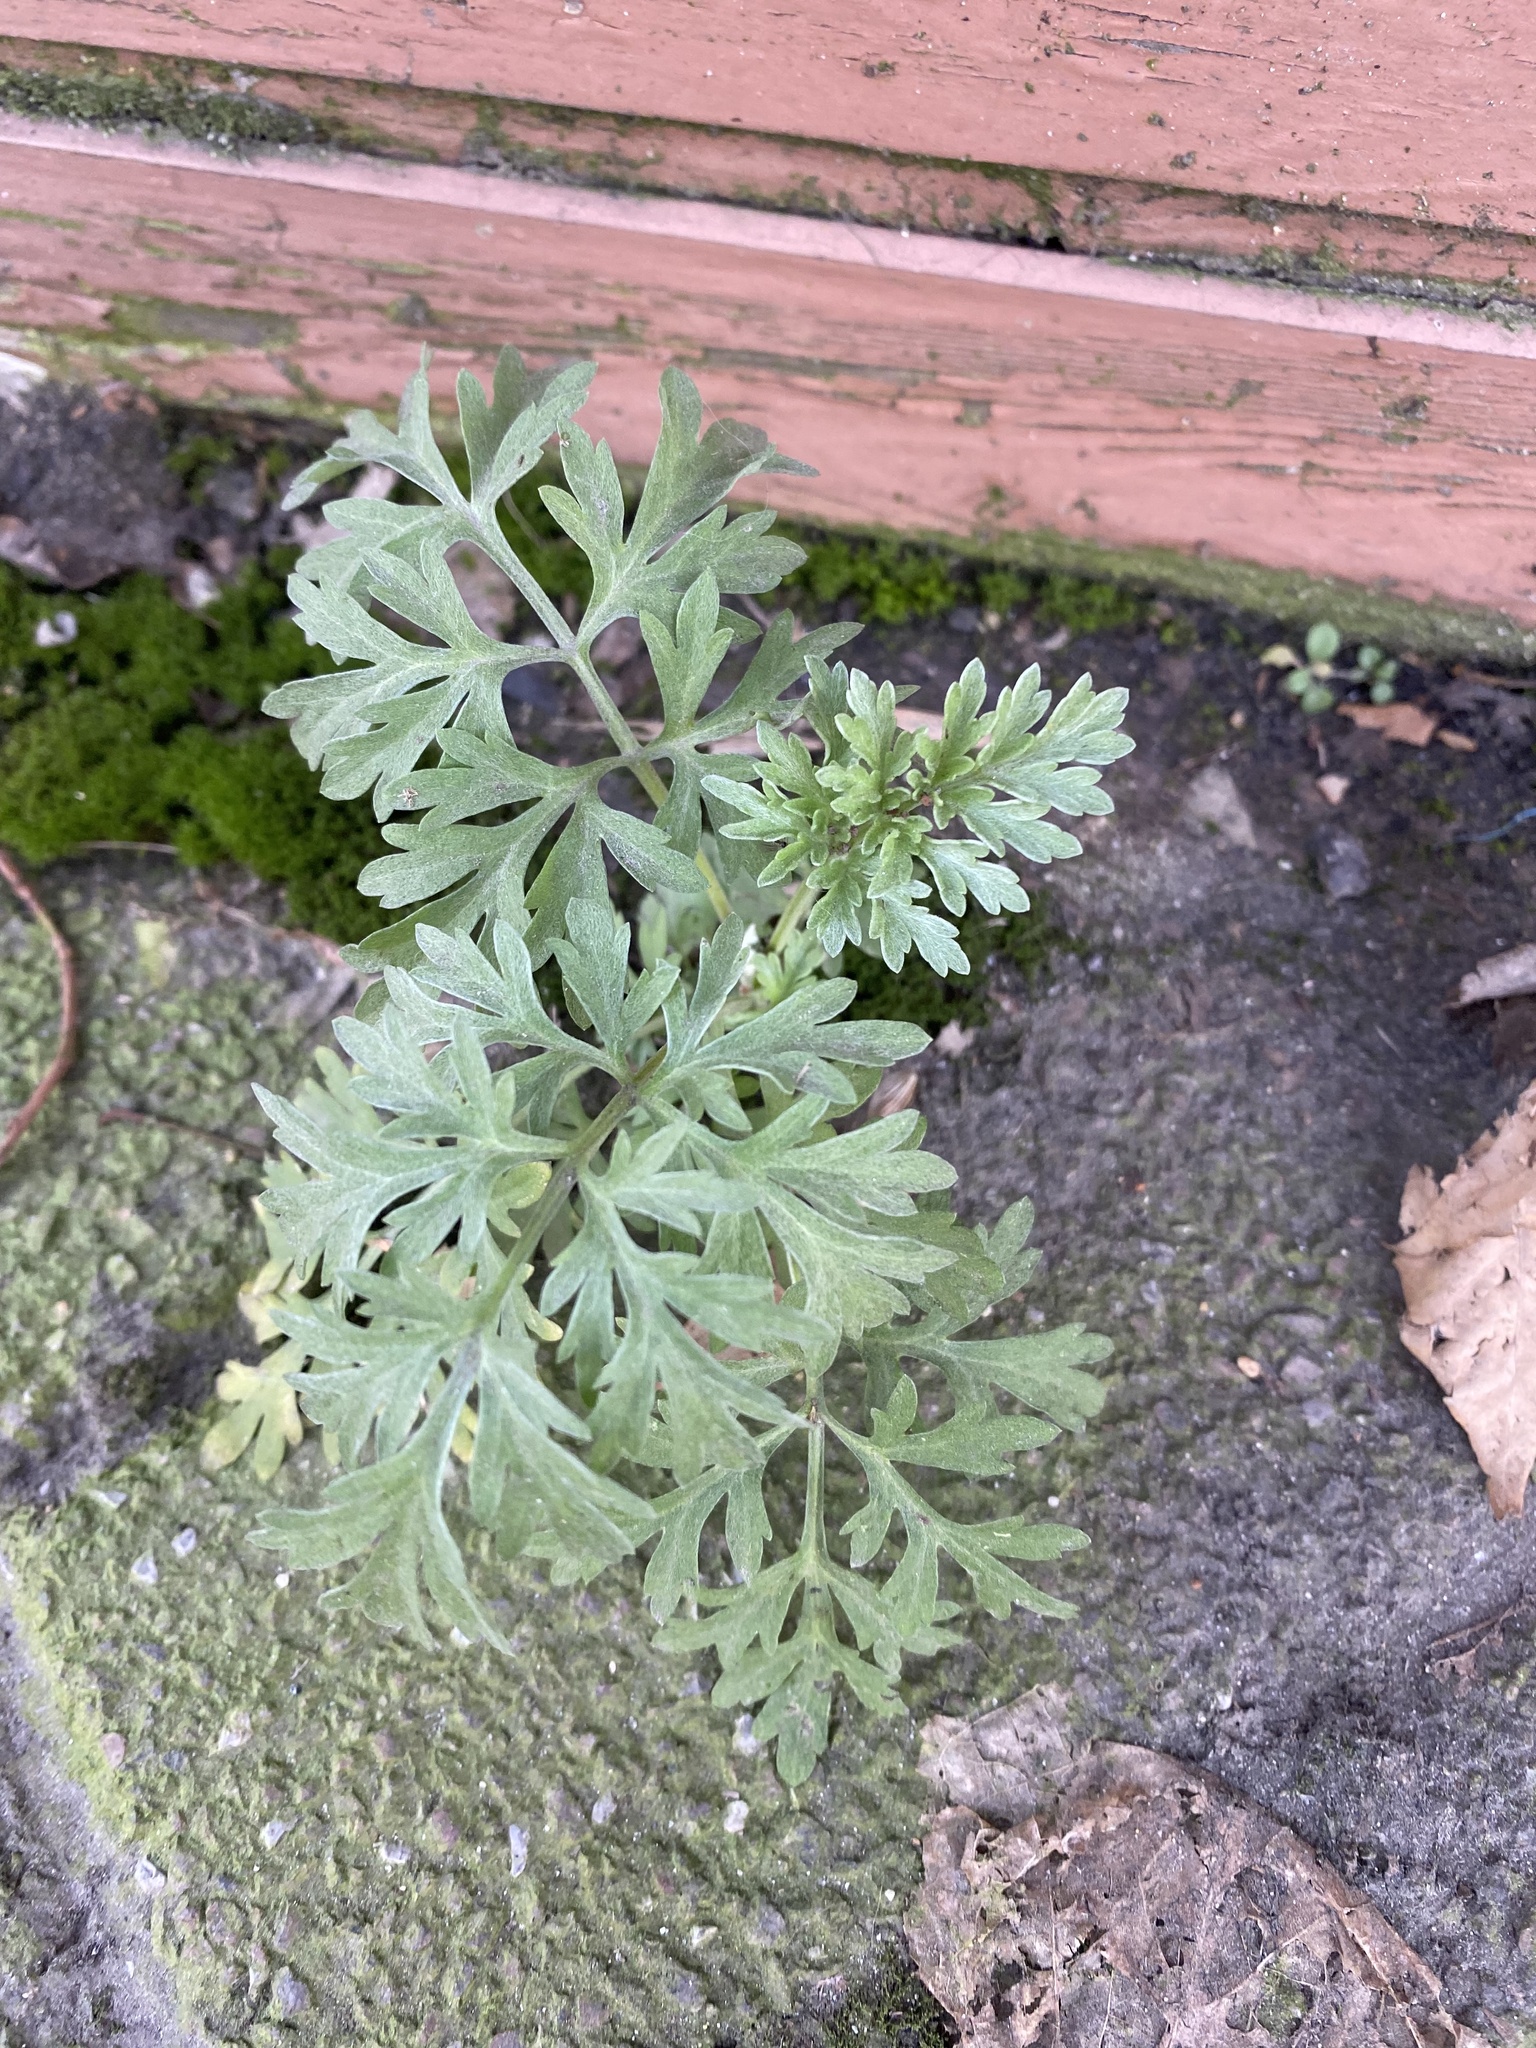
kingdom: Plantae
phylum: Tracheophyta
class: Magnoliopsida
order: Asterales
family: Asteraceae
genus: Artemisia
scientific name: Artemisia absinthium
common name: Wormwood
